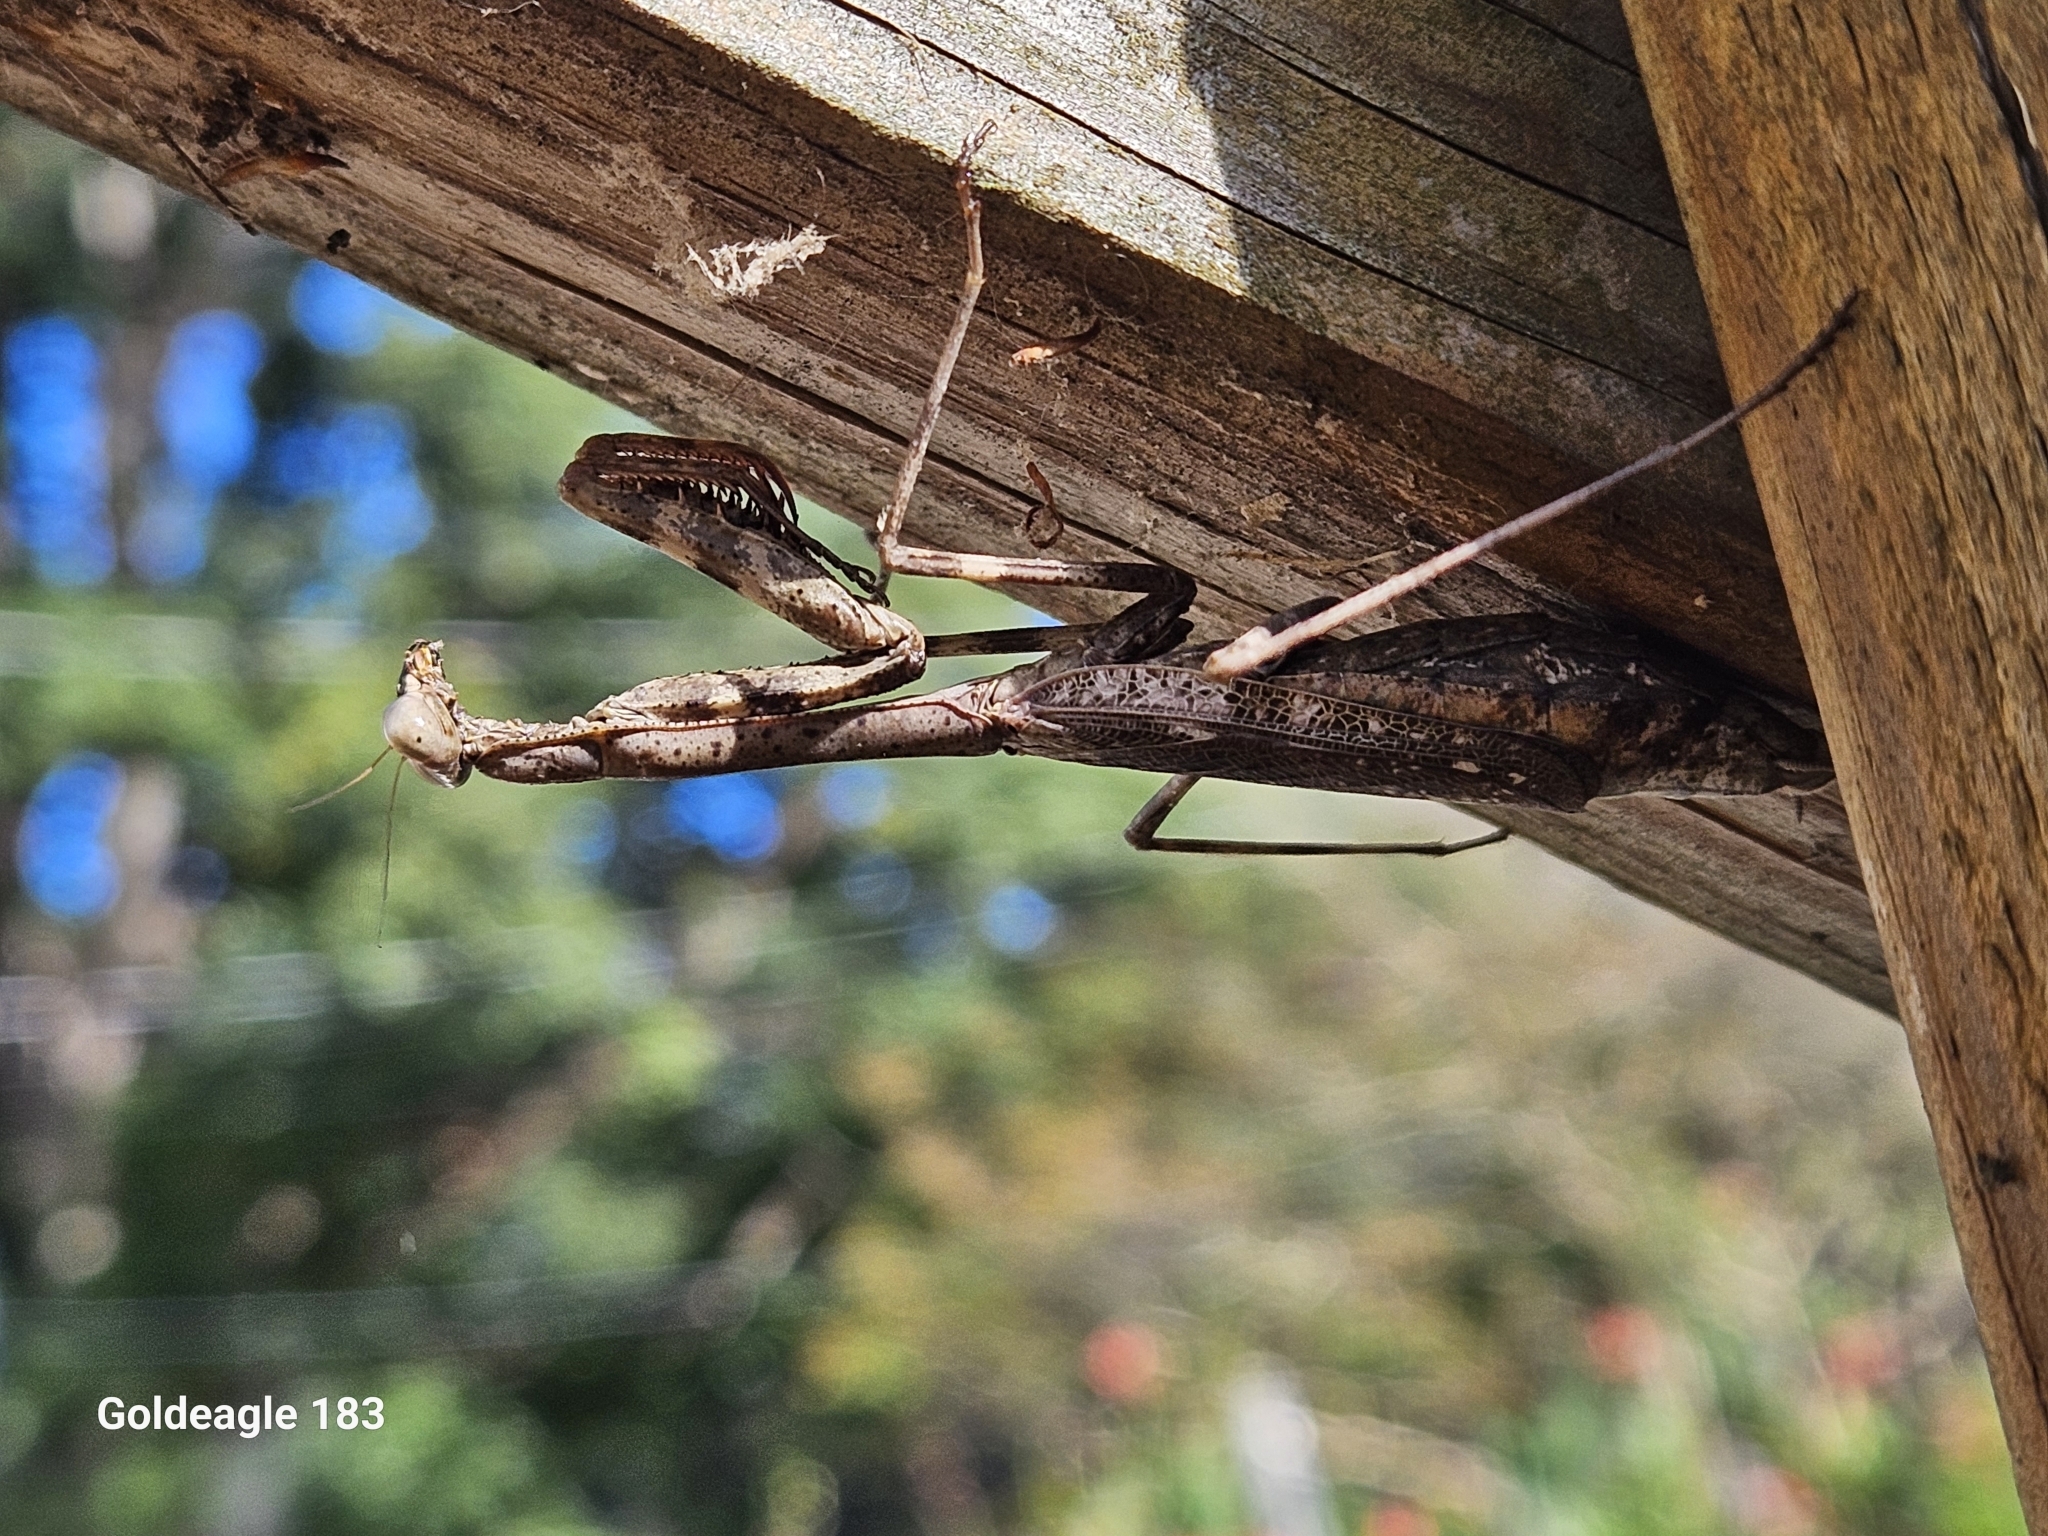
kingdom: Animalia
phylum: Arthropoda
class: Insecta
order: Mantodea
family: Mantidae
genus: Stagmomantis
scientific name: Stagmomantis carolina
